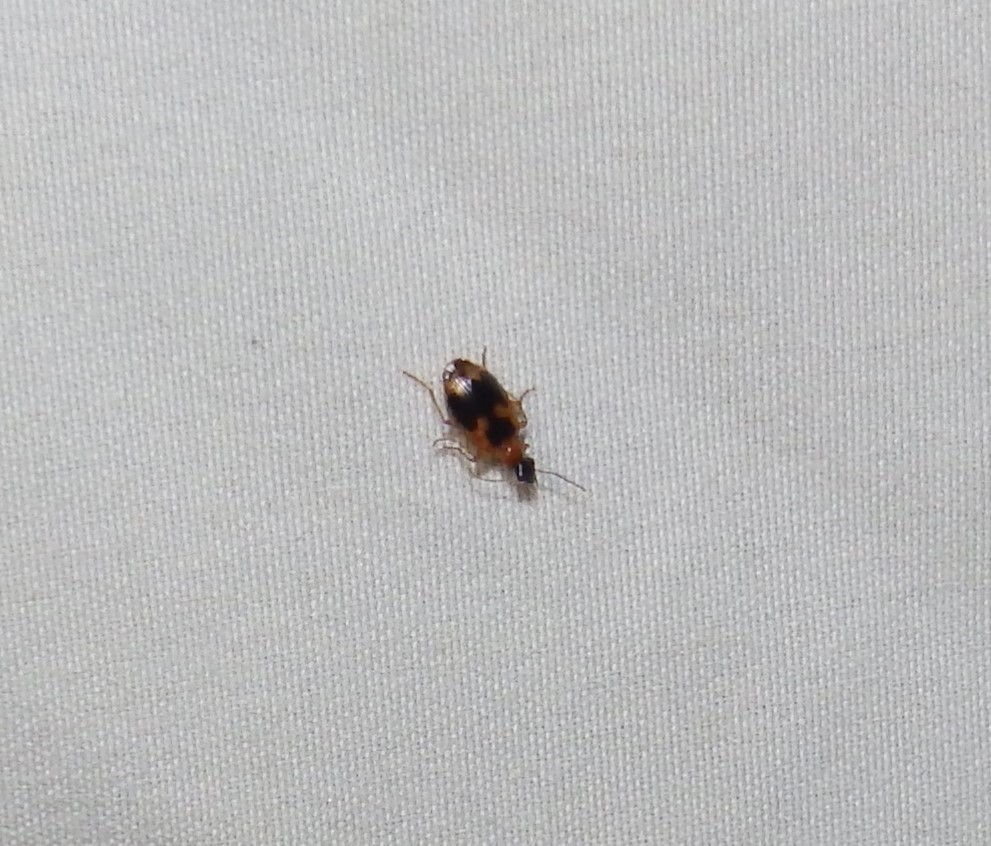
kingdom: Animalia
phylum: Arthropoda
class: Insecta
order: Coleoptera
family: Carabidae
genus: Lebia
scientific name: Lebia analis
